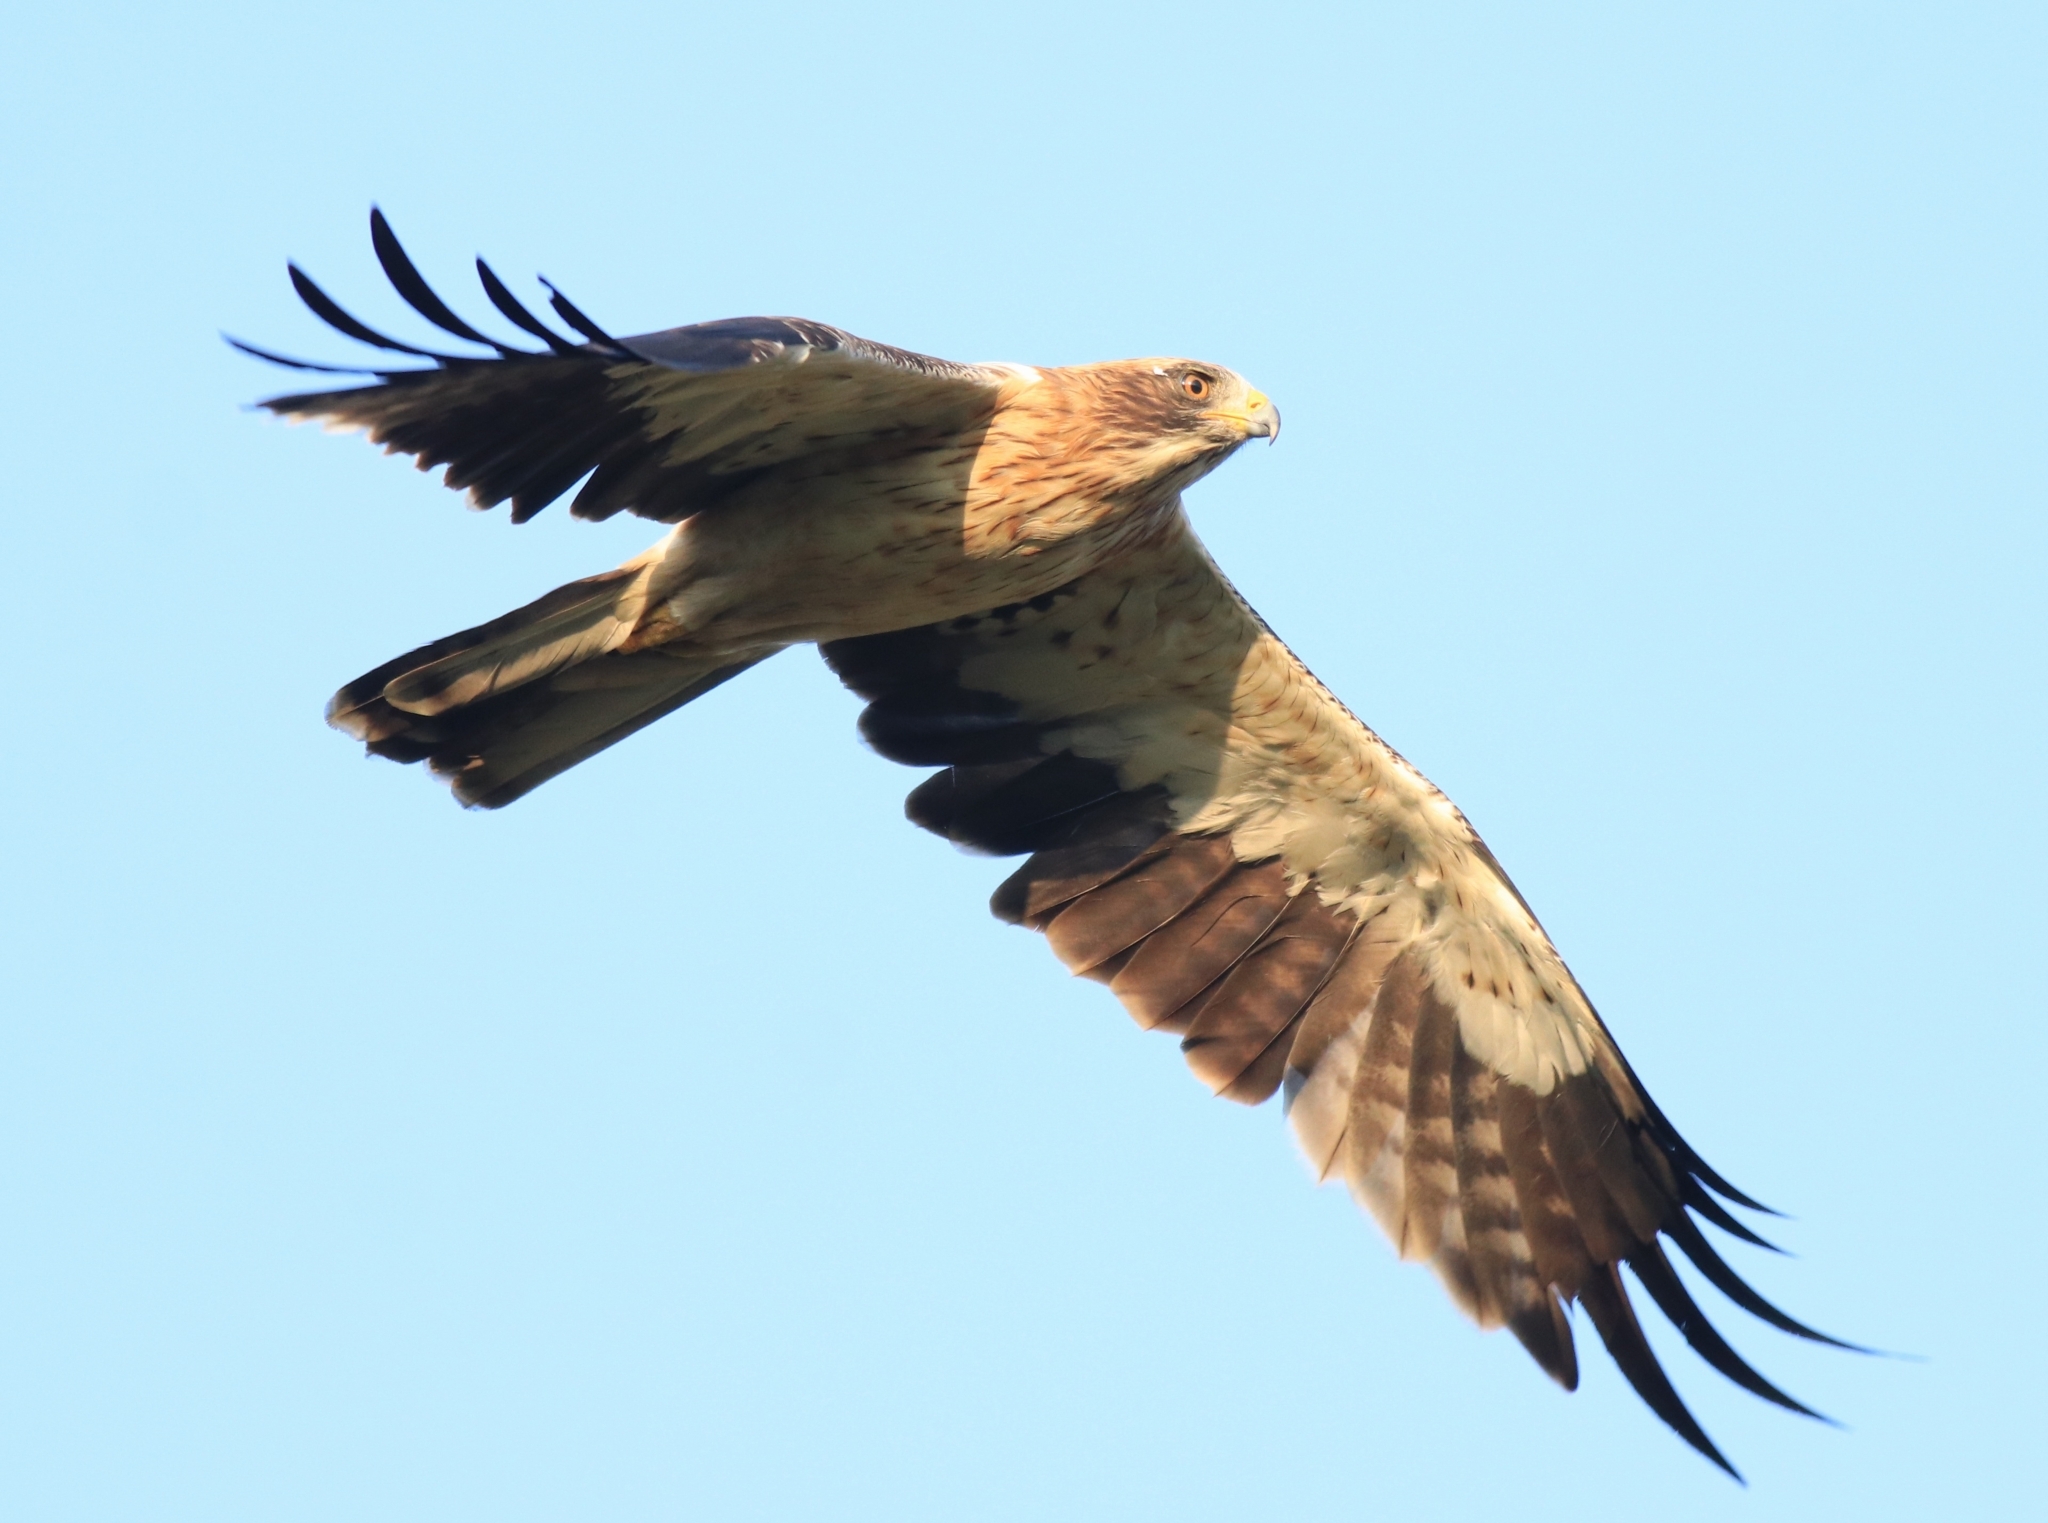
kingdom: Animalia
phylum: Chordata
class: Aves
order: Accipitriformes
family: Accipitridae
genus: Hieraaetus
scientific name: Hieraaetus pennatus
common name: Booted eagle
